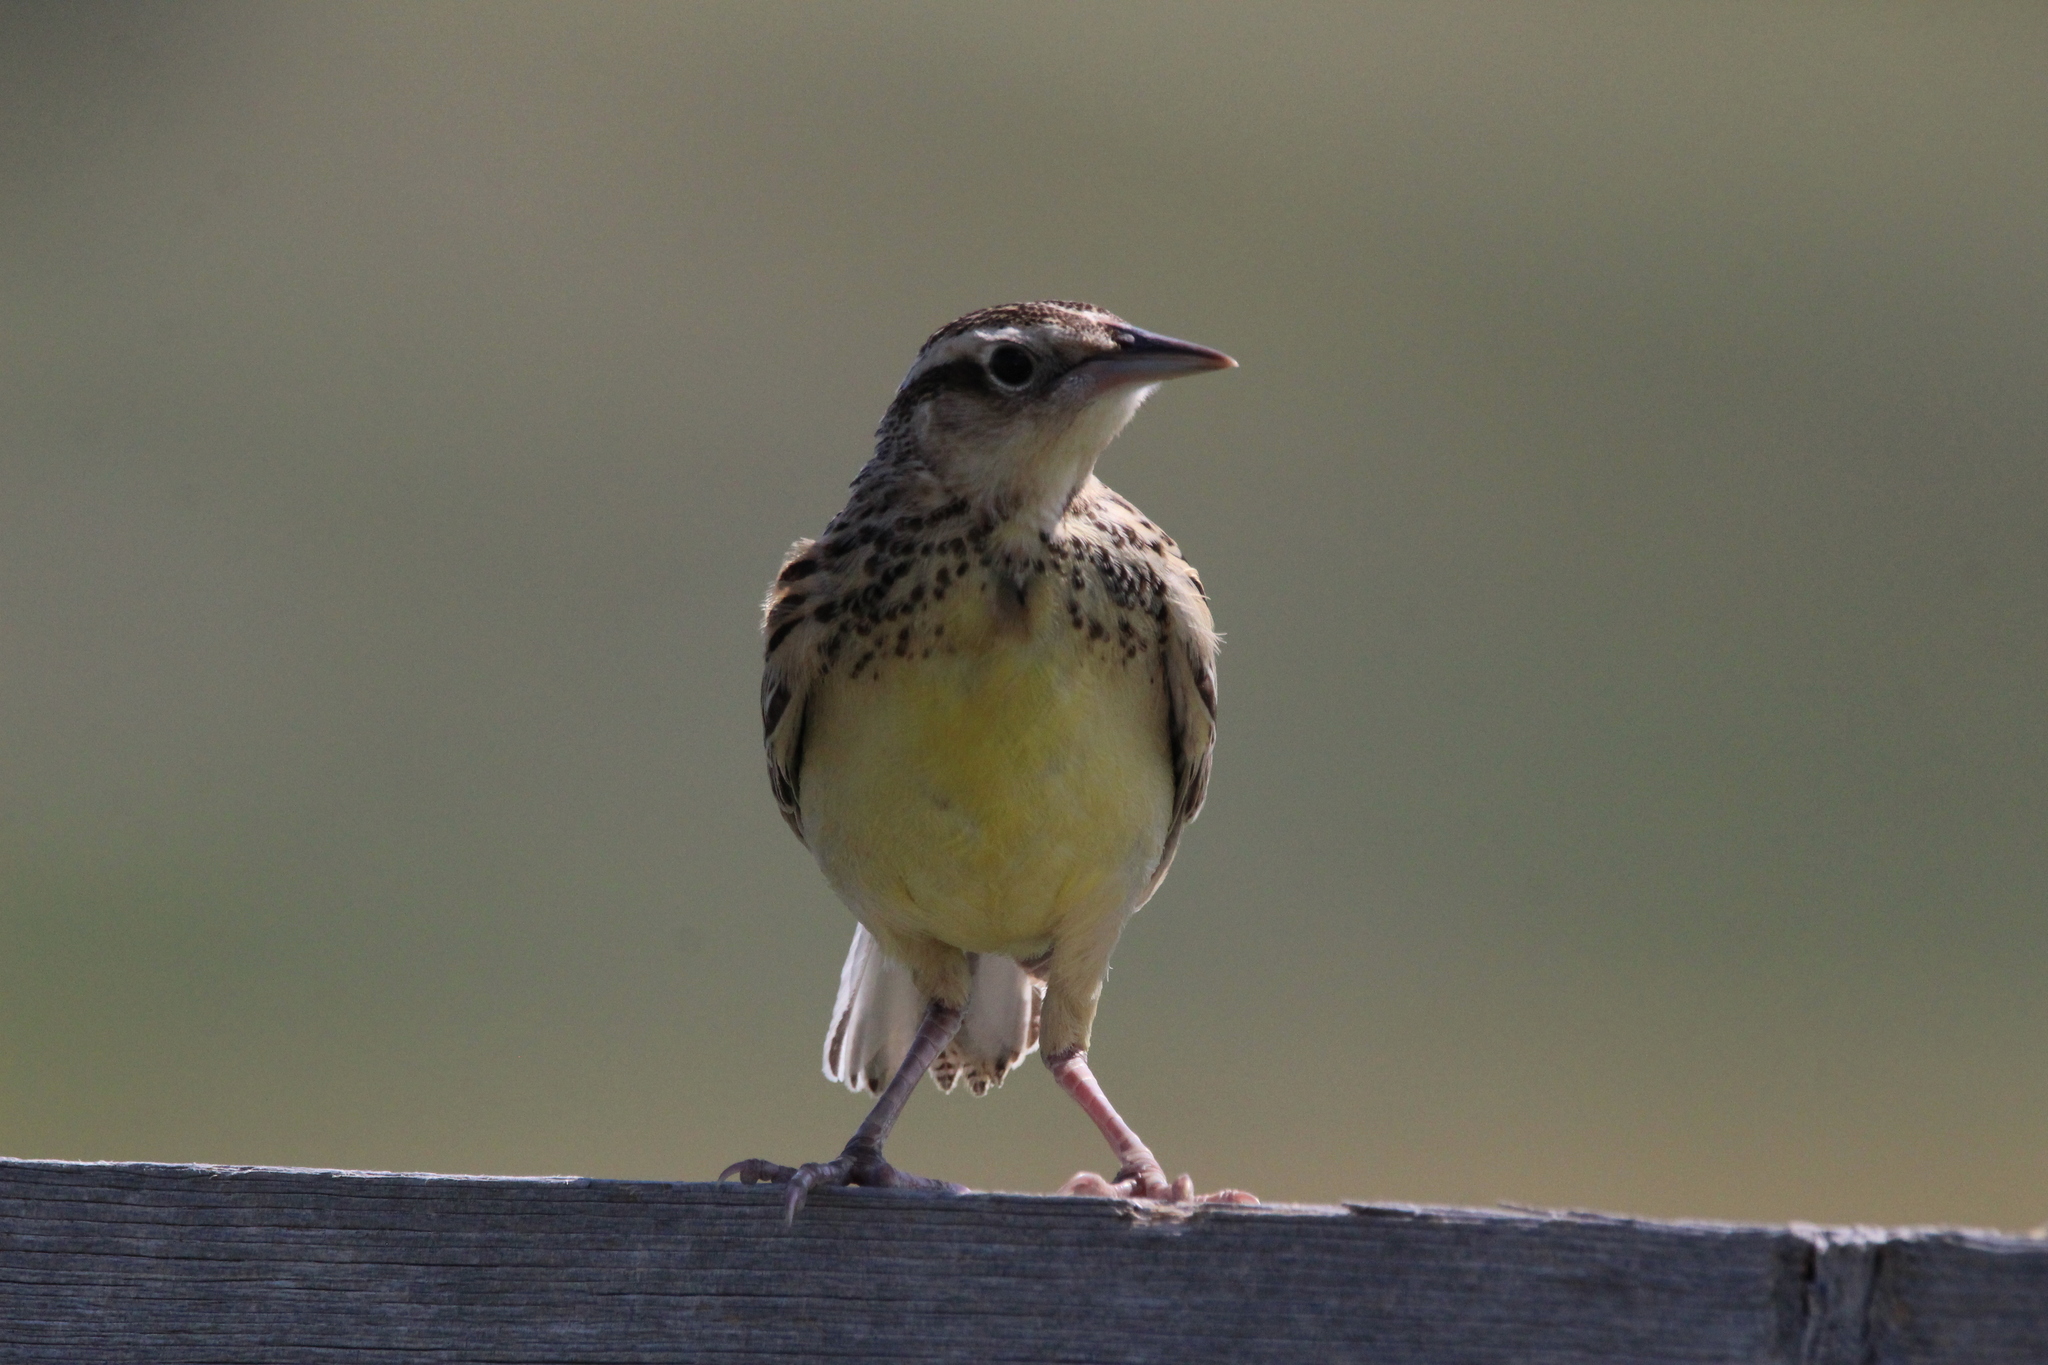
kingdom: Animalia
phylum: Chordata
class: Aves
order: Passeriformes
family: Icteridae
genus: Sturnella
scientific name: Sturnella neglecta
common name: Western meadowlark
